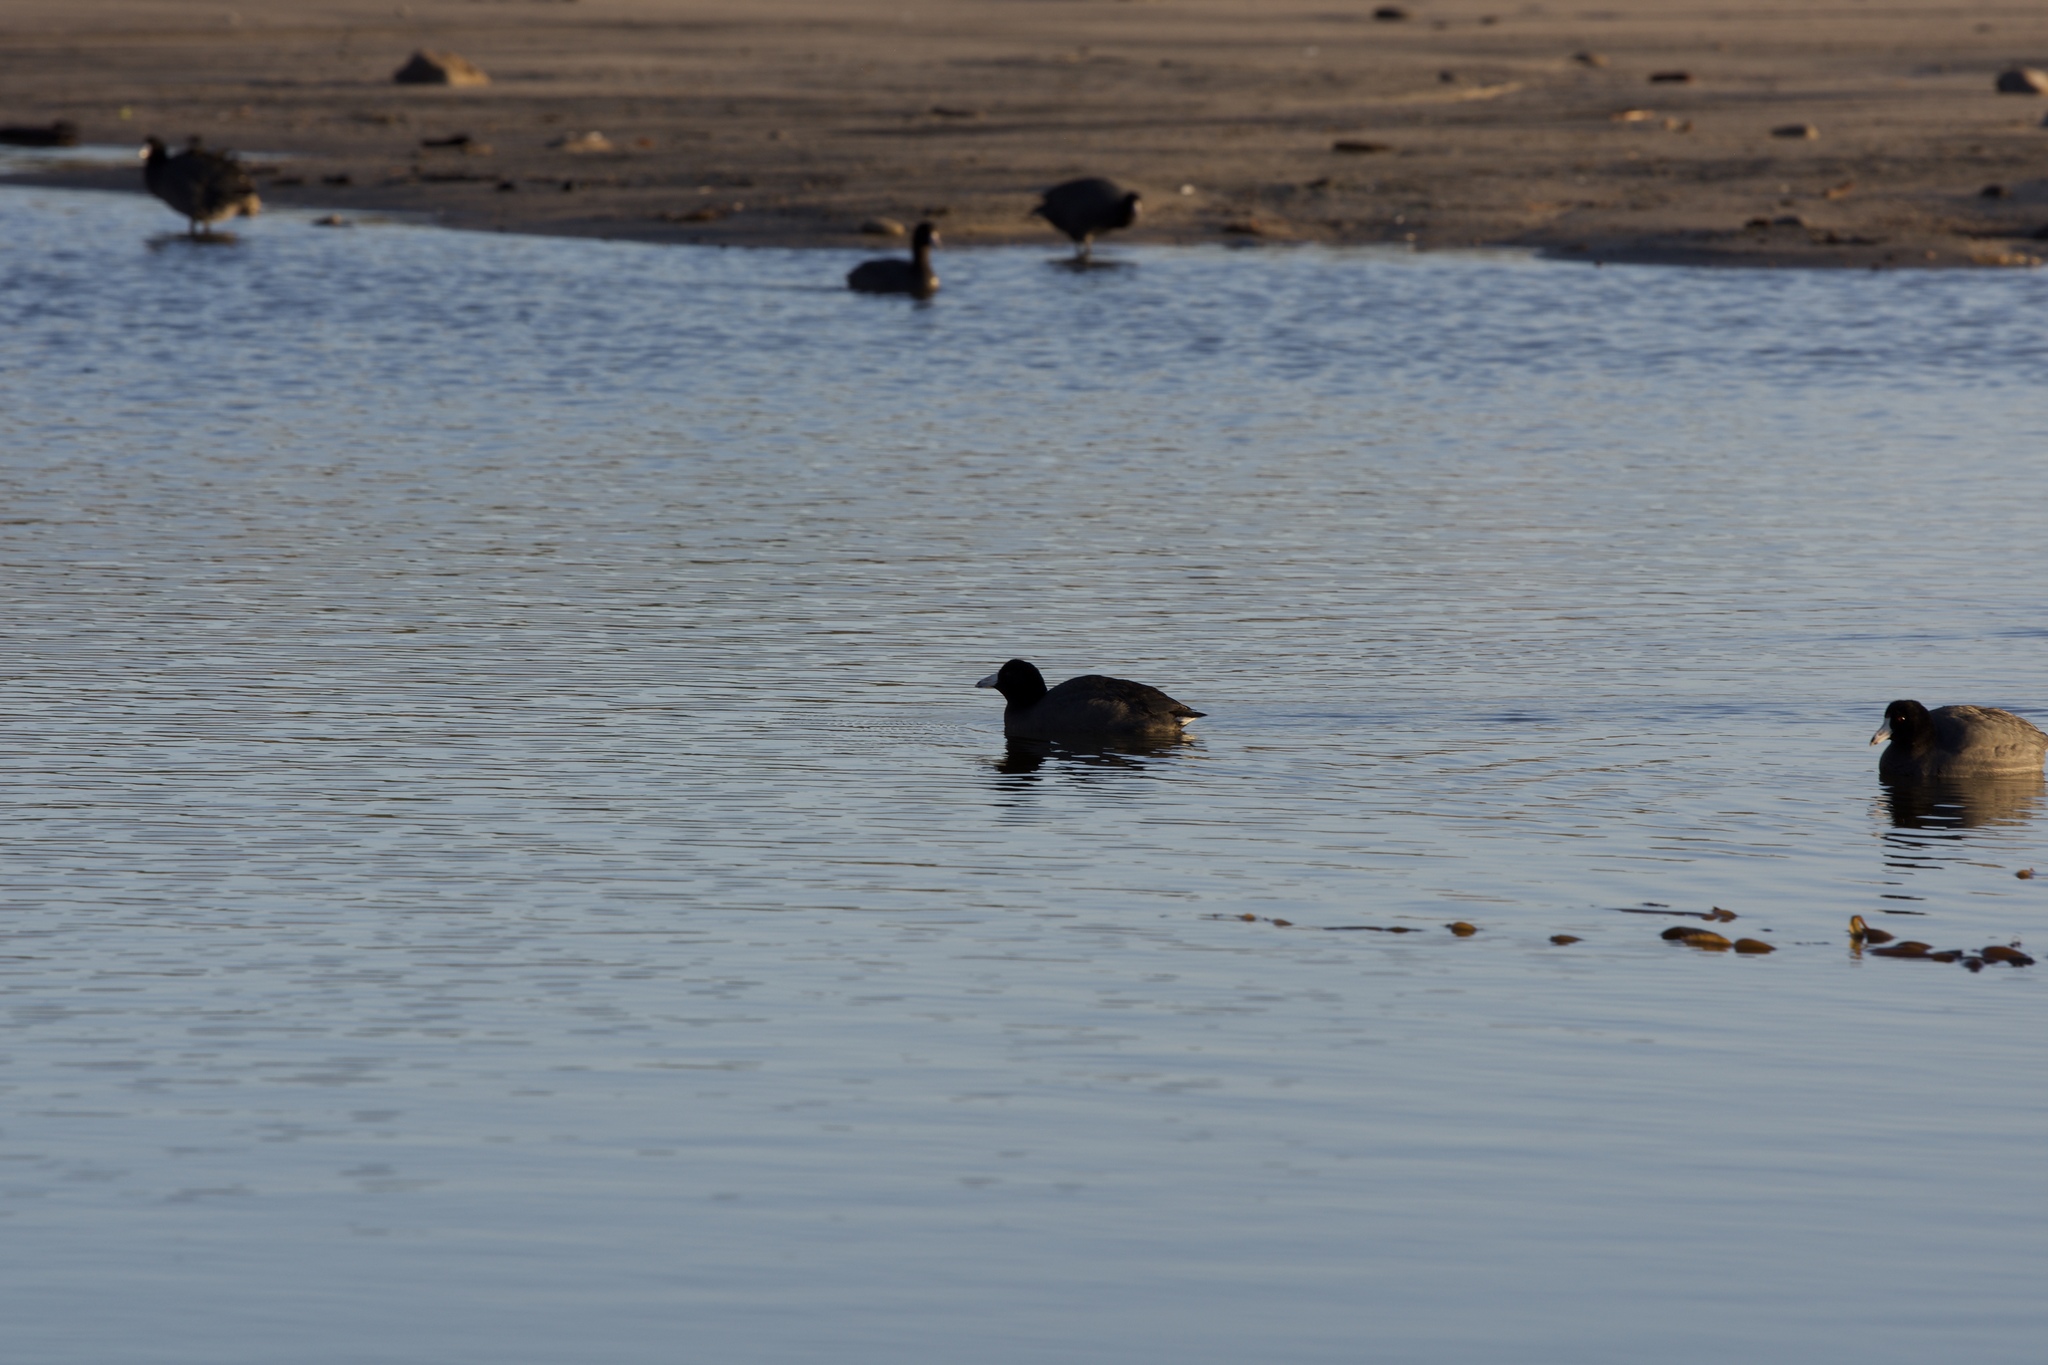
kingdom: Animalia
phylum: Chordata
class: Aves
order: Gruiformes
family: Rallidae
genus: Fulica
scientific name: Fulica americana
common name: American coot
